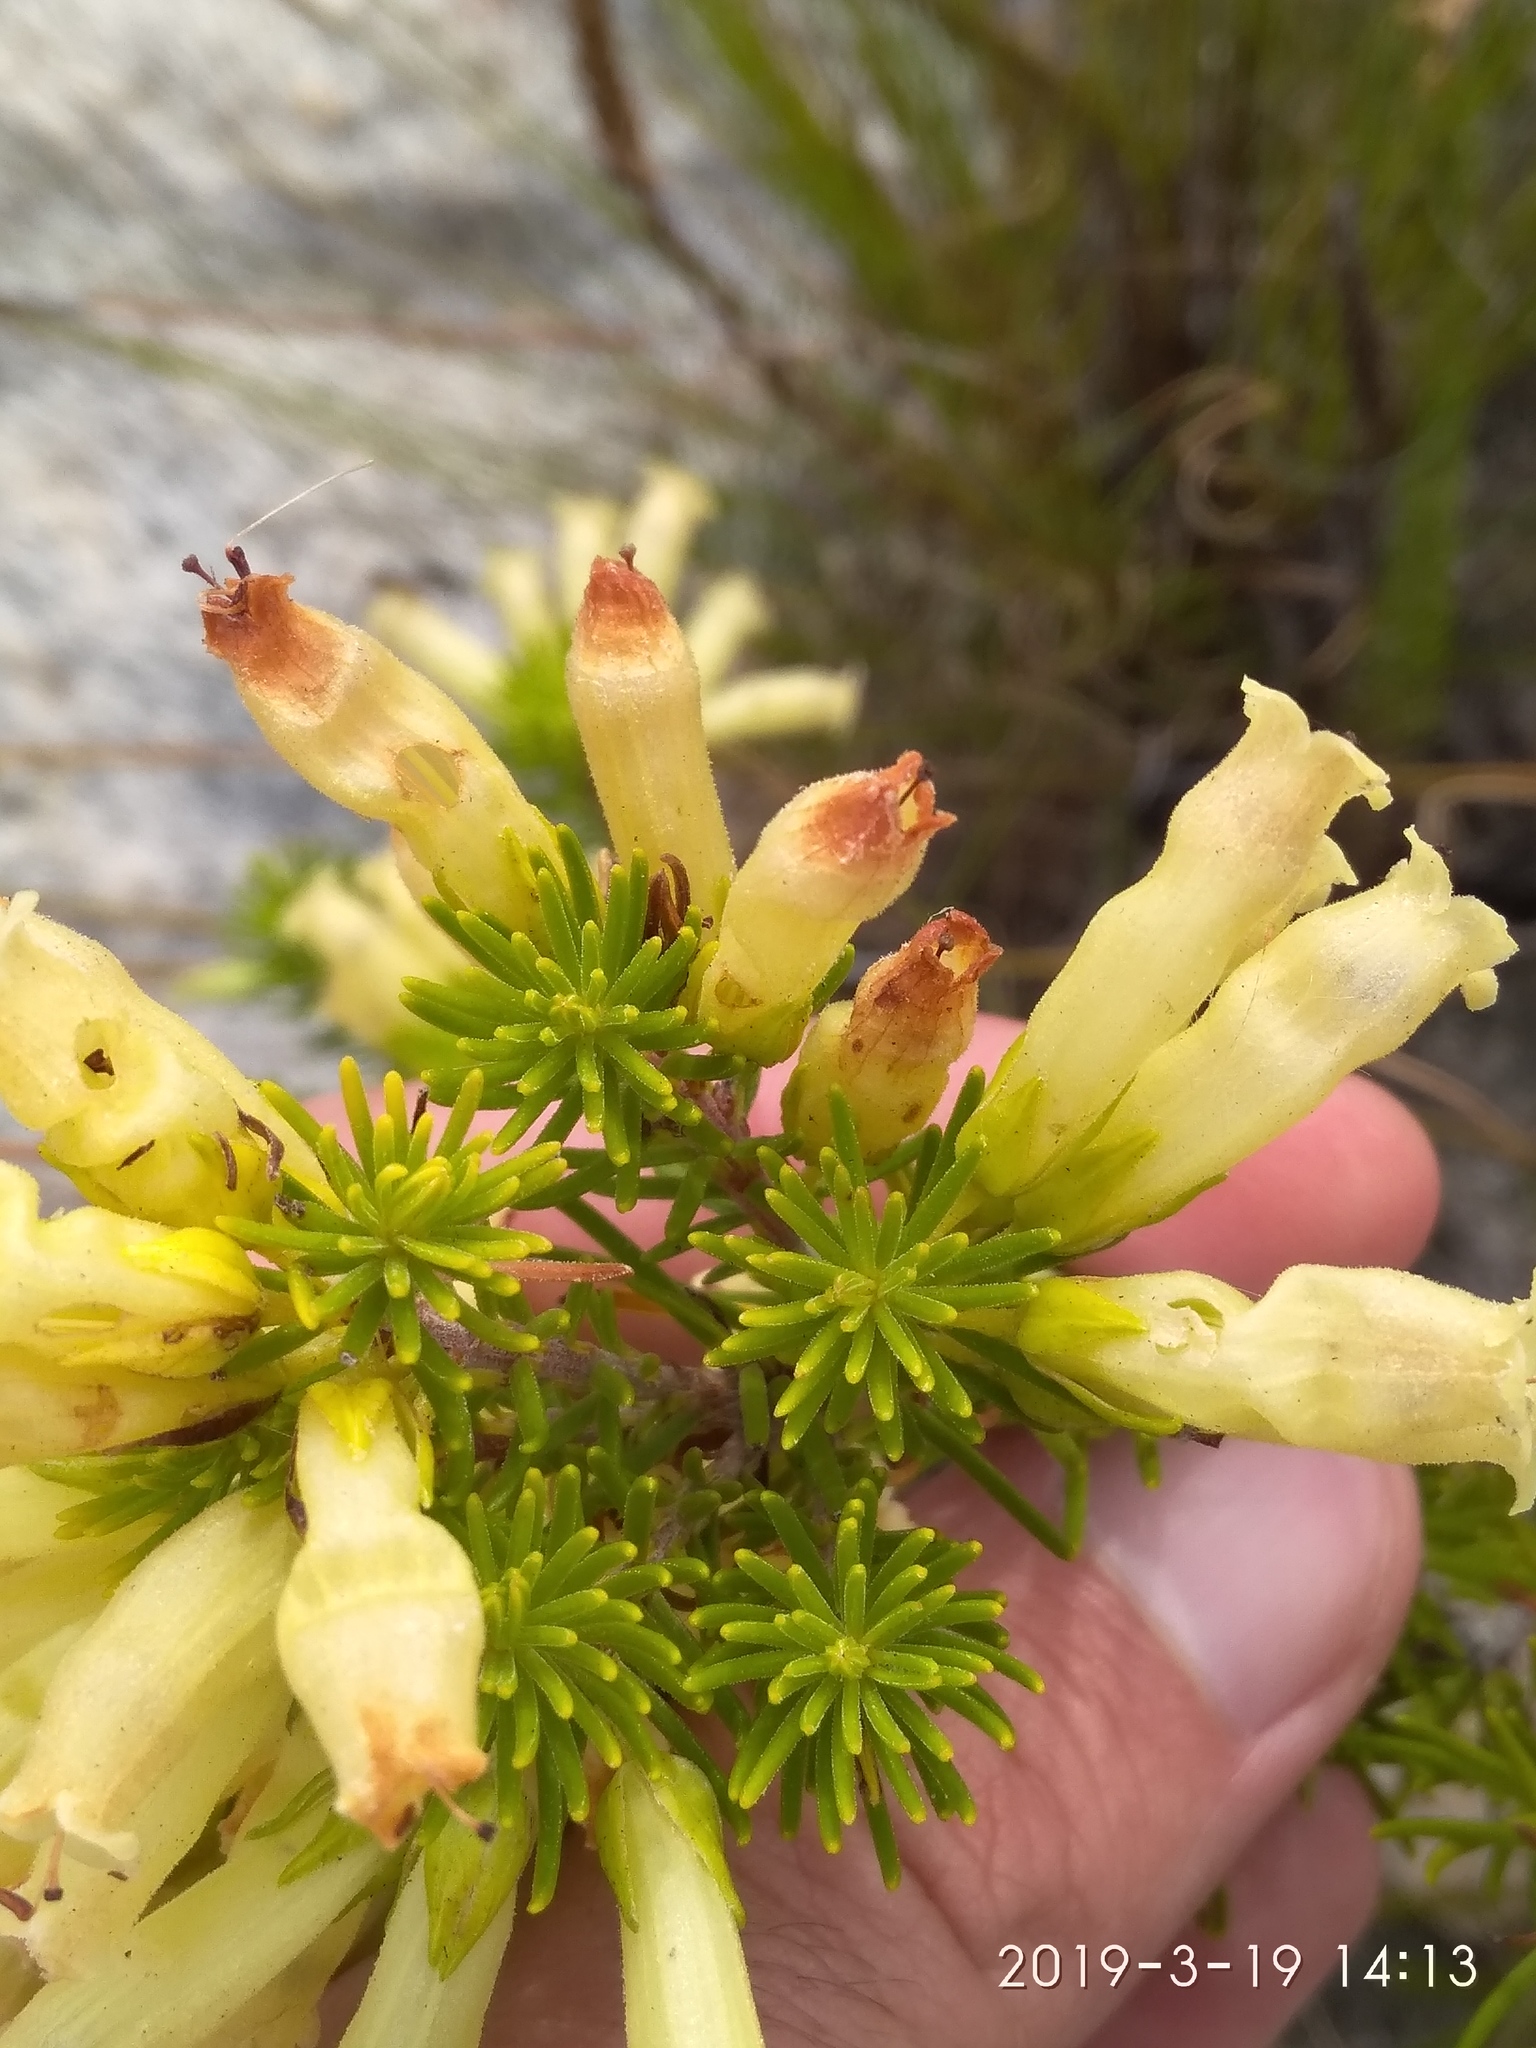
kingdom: Plantae
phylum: Tracheophyta
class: Magnoliopsida
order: Ericales
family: Ericaceae
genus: Erica
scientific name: Erica viscaria
